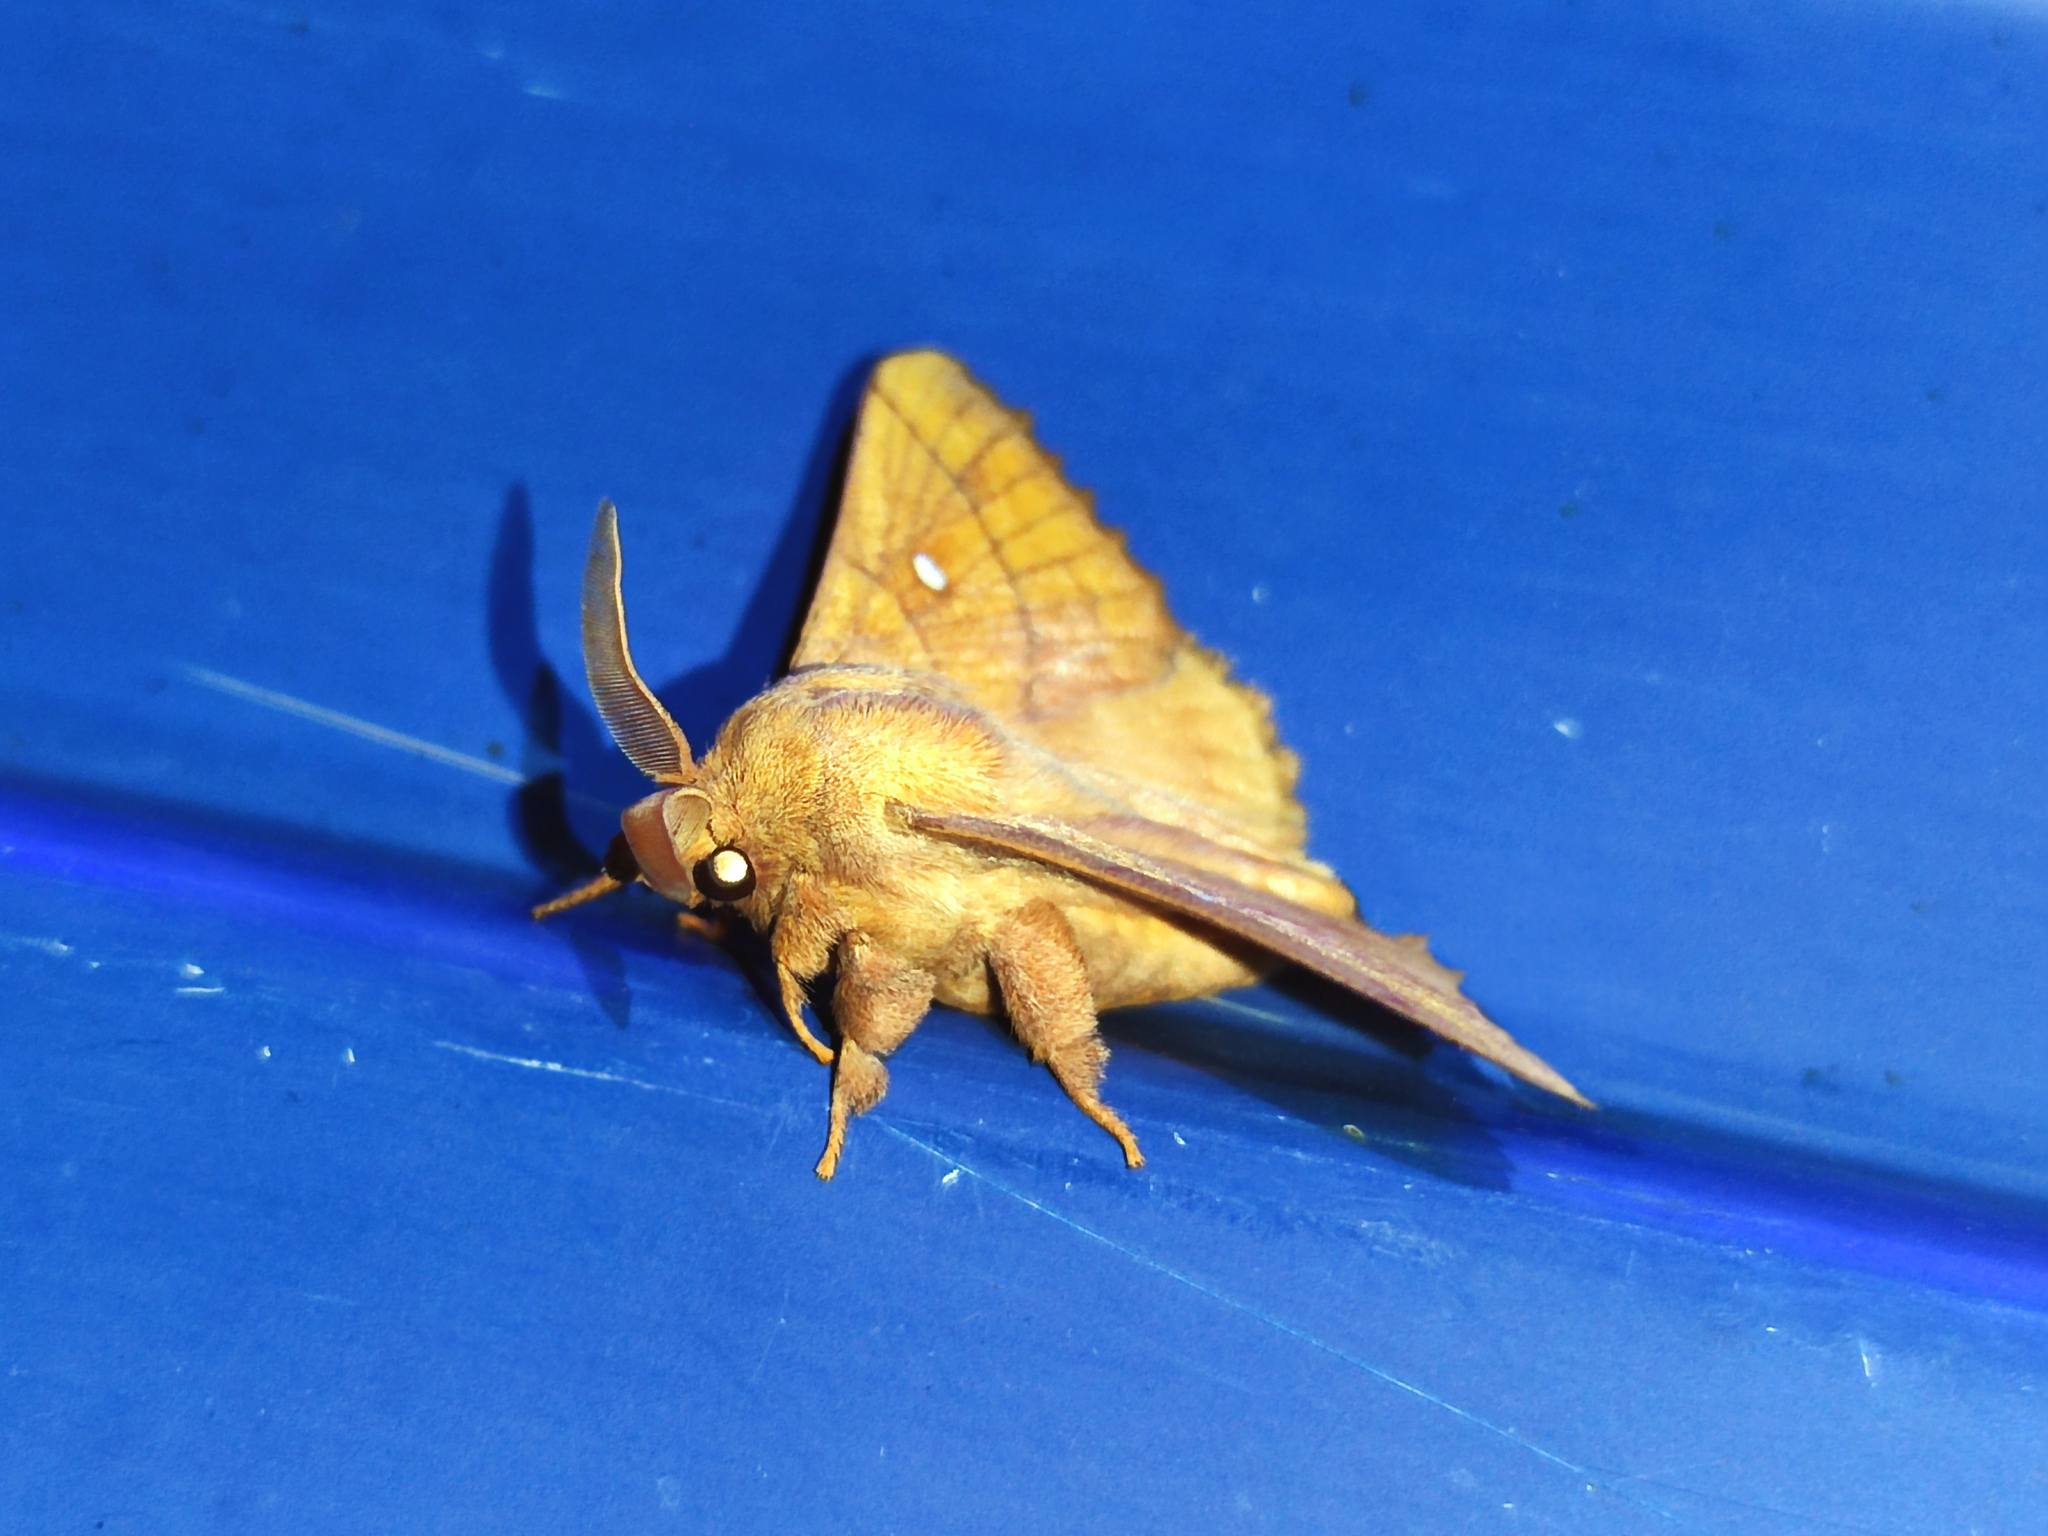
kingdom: Animalia
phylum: Arthropoda
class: Insecta
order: Lepidoptera
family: Lasiocampidae
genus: Odonestis
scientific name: Odonestis pruni
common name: Plum lappet
